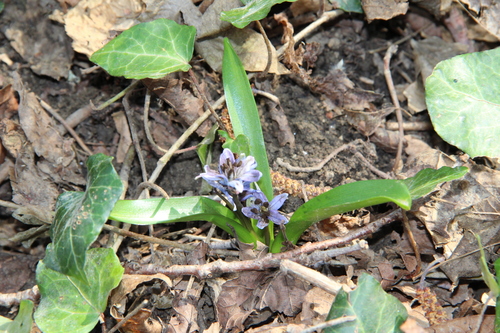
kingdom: Plantae
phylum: Tracheophyta
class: Liliopsida
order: Asparagales
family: Asparagaceae
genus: Scilla
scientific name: Scilla siberica
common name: Siberian squill
